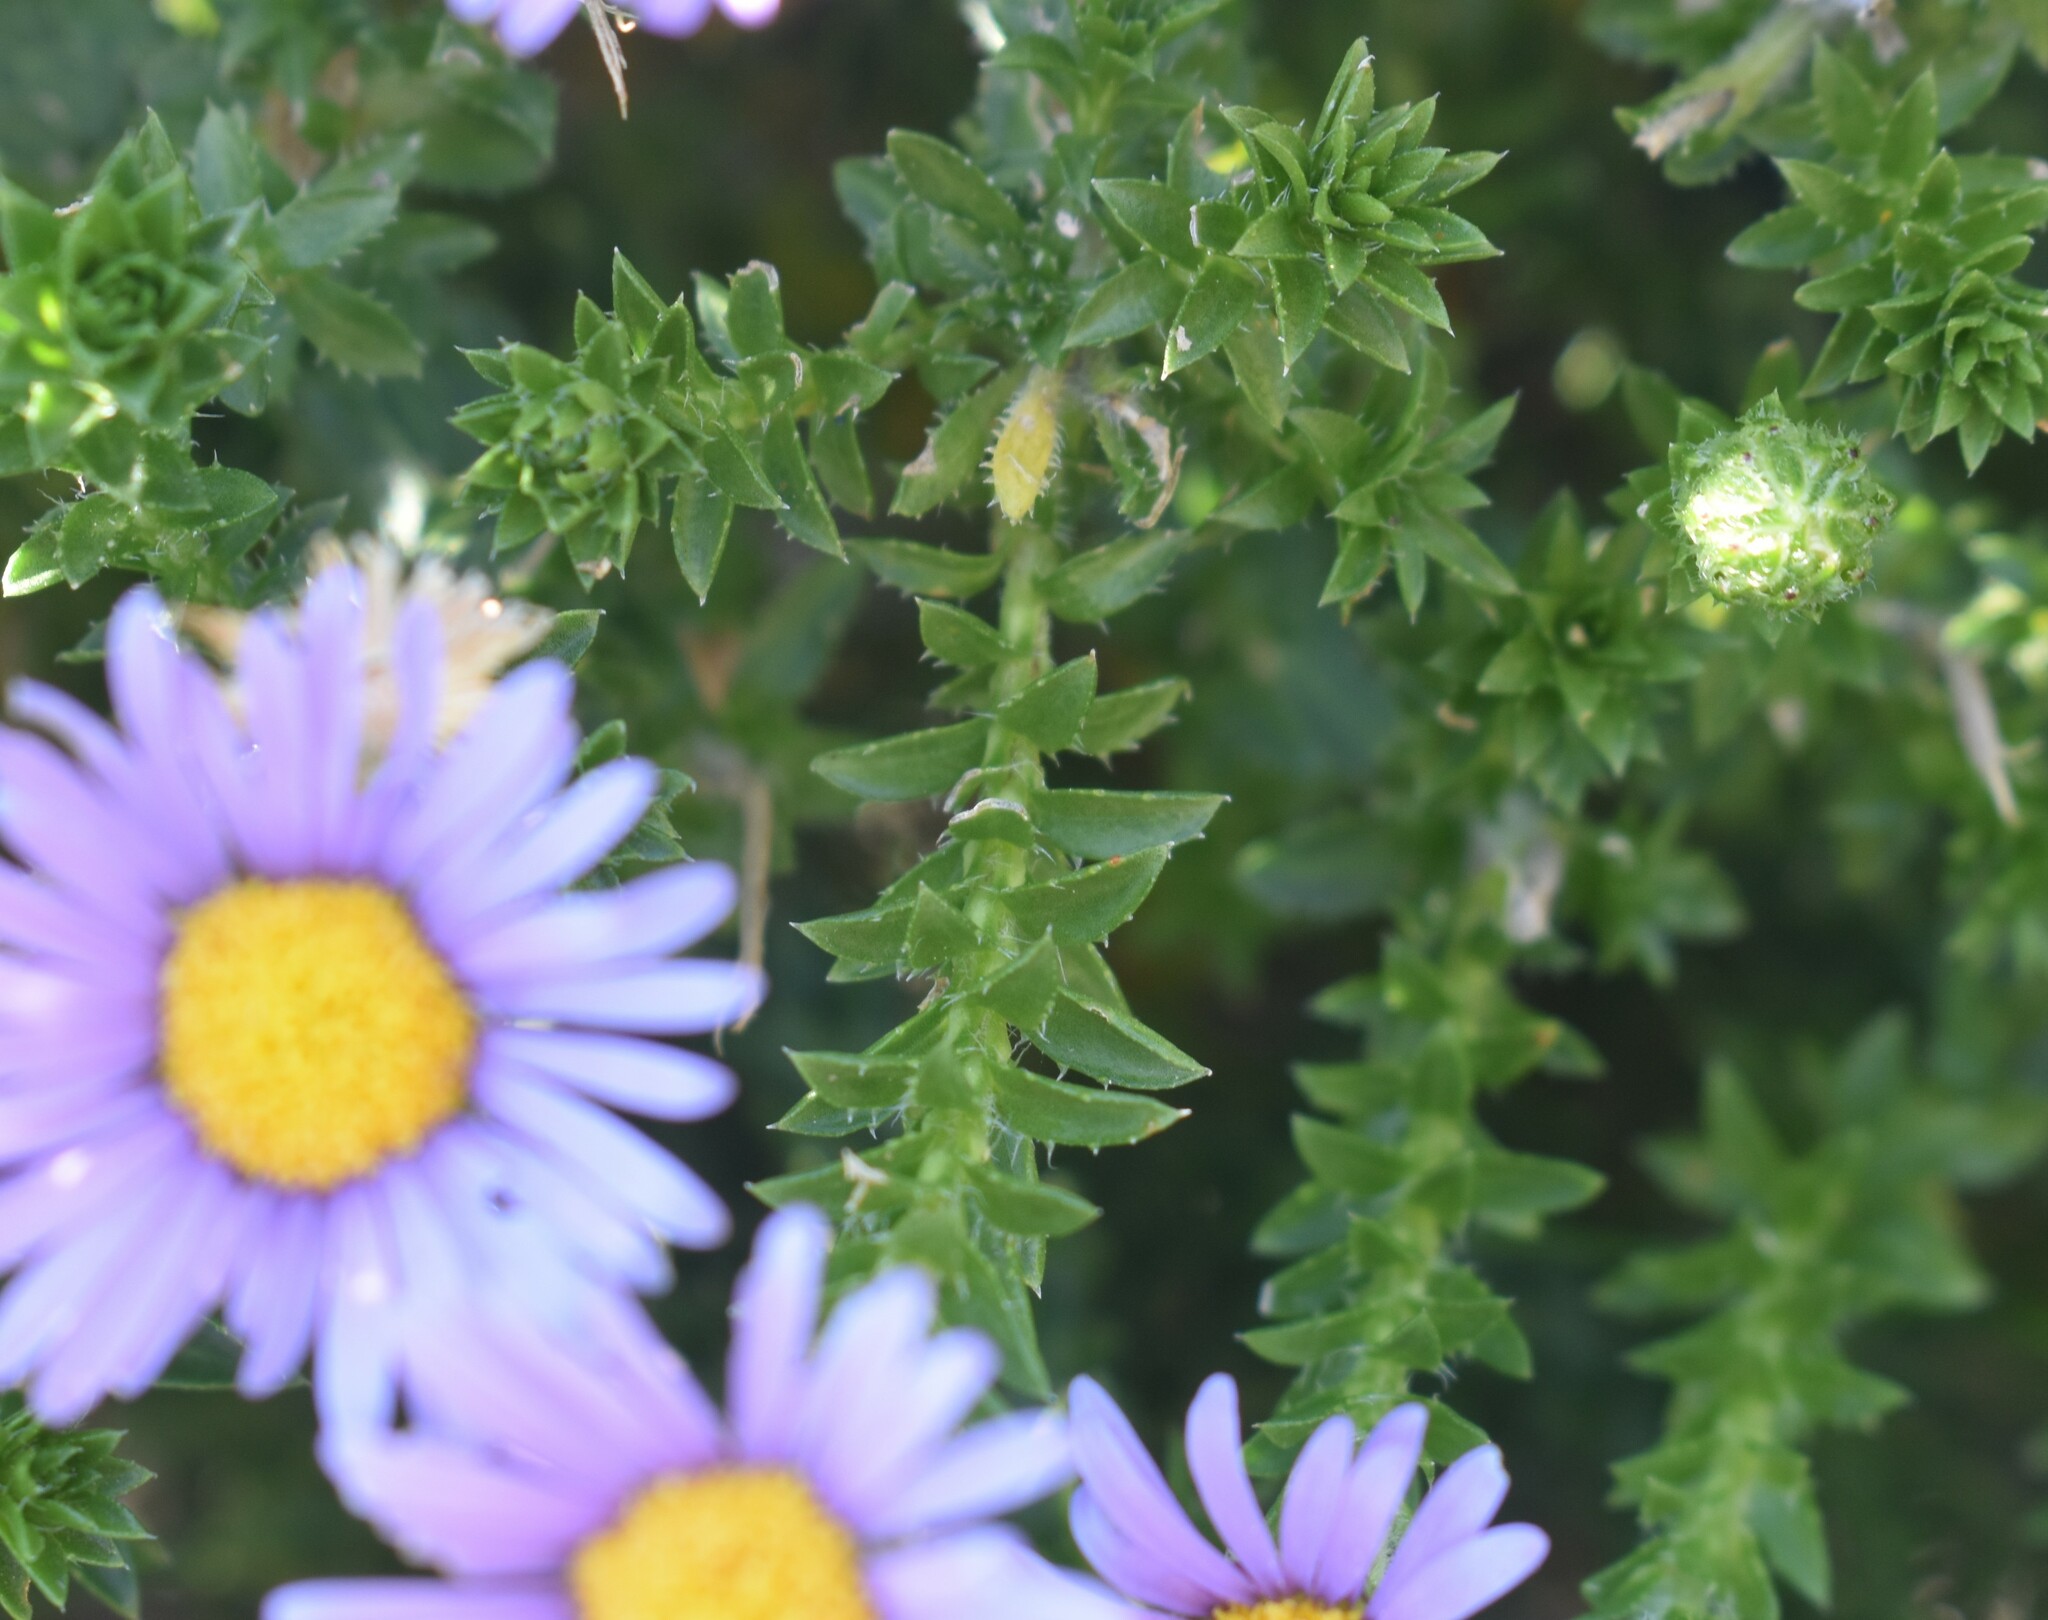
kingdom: Plantae
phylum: Tracheophyta
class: Magnoliopsida
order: Asterales
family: Asteraceae
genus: Felicia
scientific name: Felicia echinata
